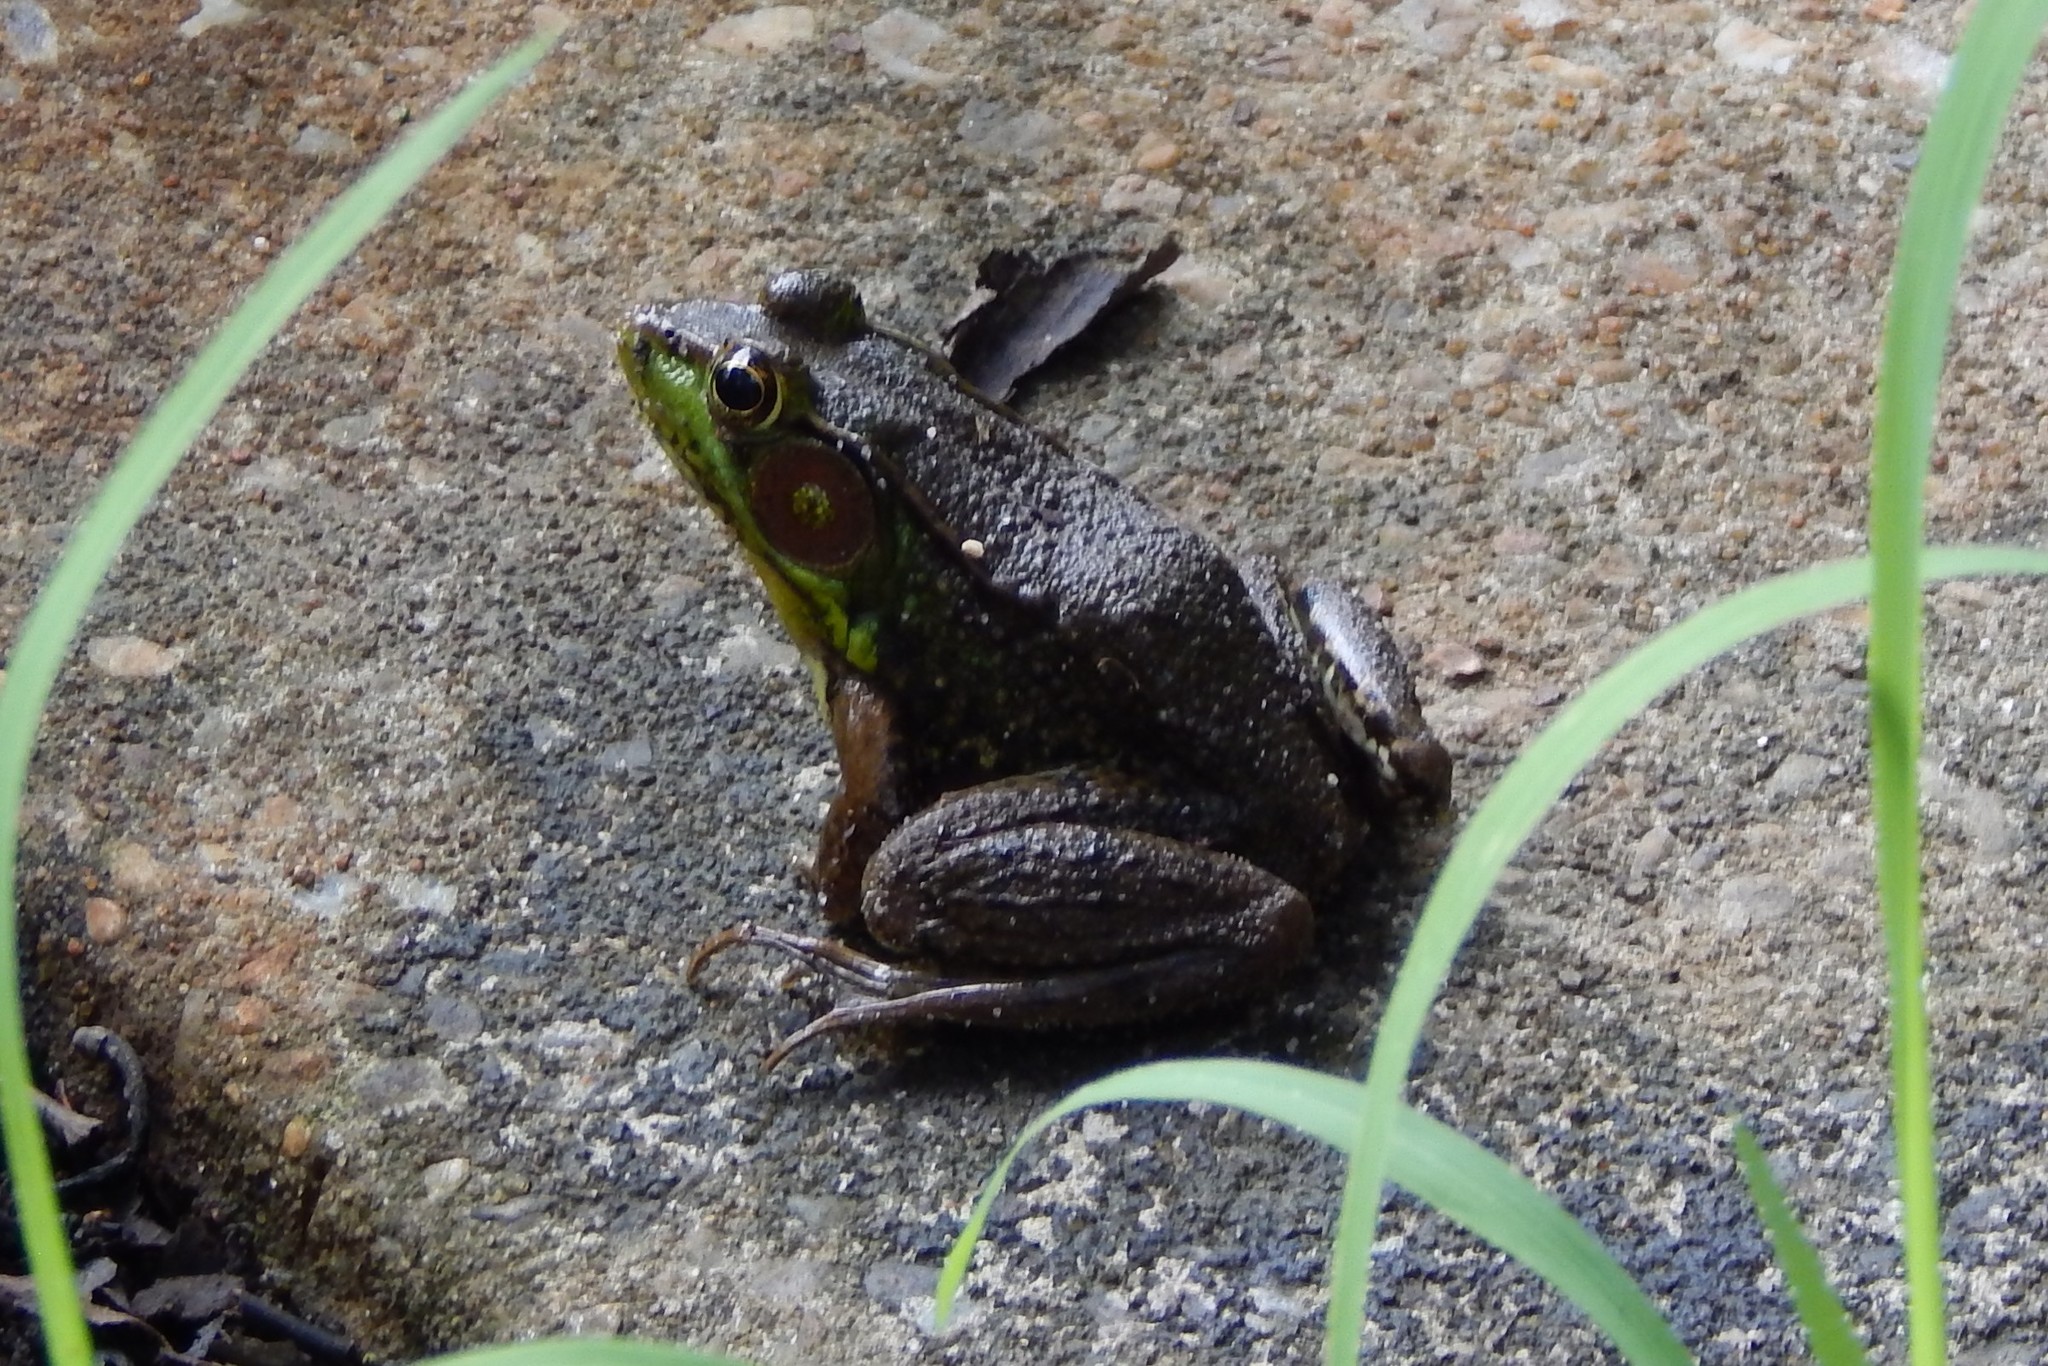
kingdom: Animalia
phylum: Chordata
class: Amphibia
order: Anura
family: Ranidae
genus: Lithobates
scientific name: Lithobates clamitans
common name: Green frog
